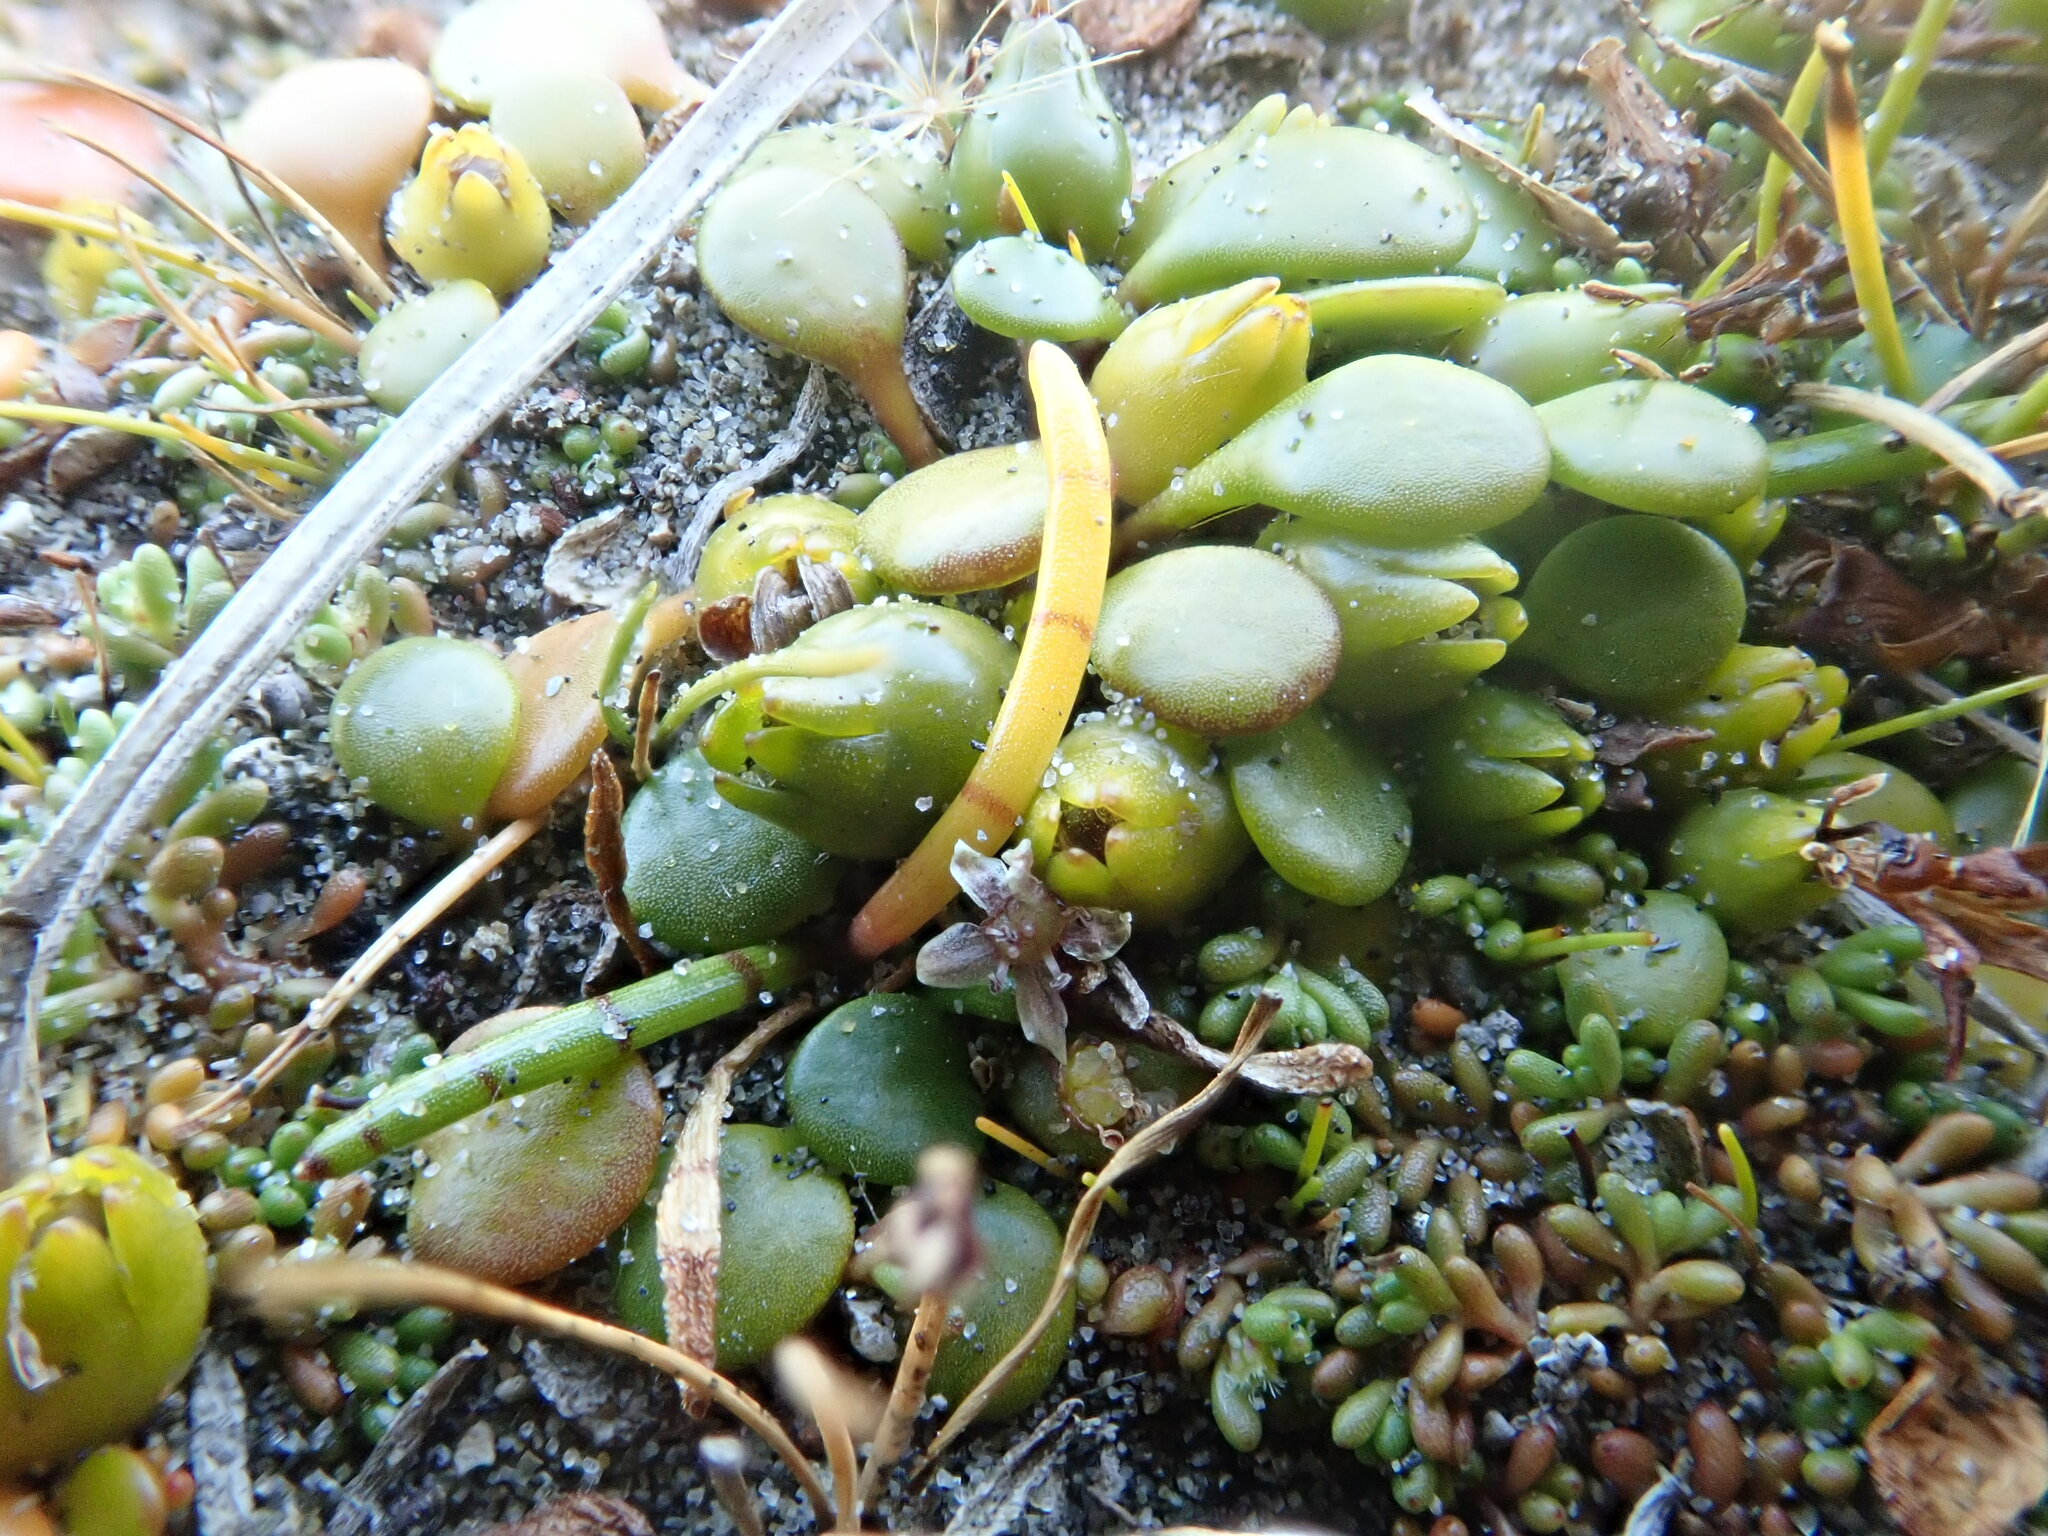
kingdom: Plantae
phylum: Tracheophyta
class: Magnoliopsida
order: Apiales
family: Apiaceae
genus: Lilaeopsis
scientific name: Lilaeopsis novae-zelandiae
